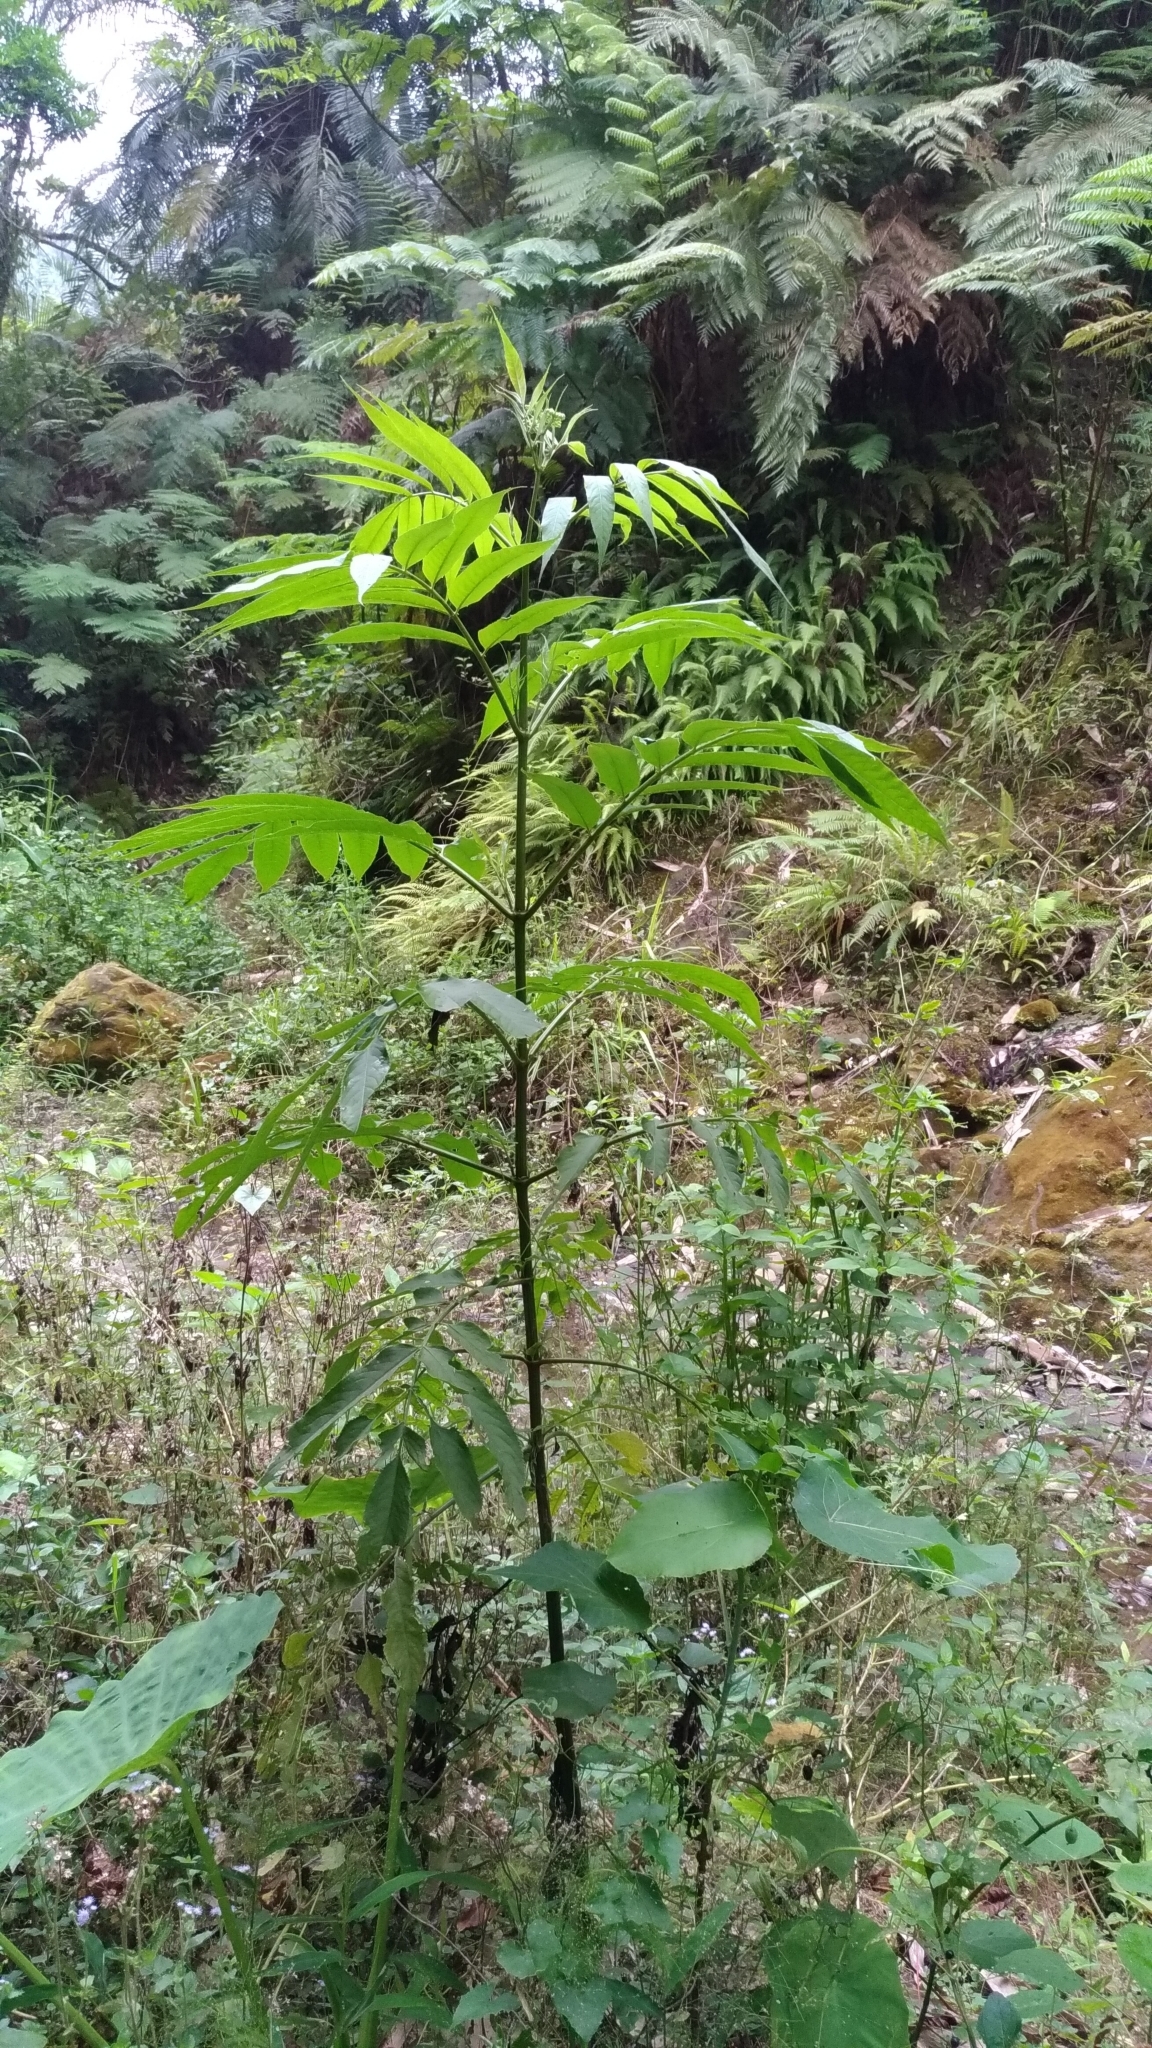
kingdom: Plantae
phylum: Tracheophyta
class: Magnoliopsida
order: Dipsacales
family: Viburnaceae
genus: Sambucus
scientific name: Sambucus javanica
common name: Chinese elder
